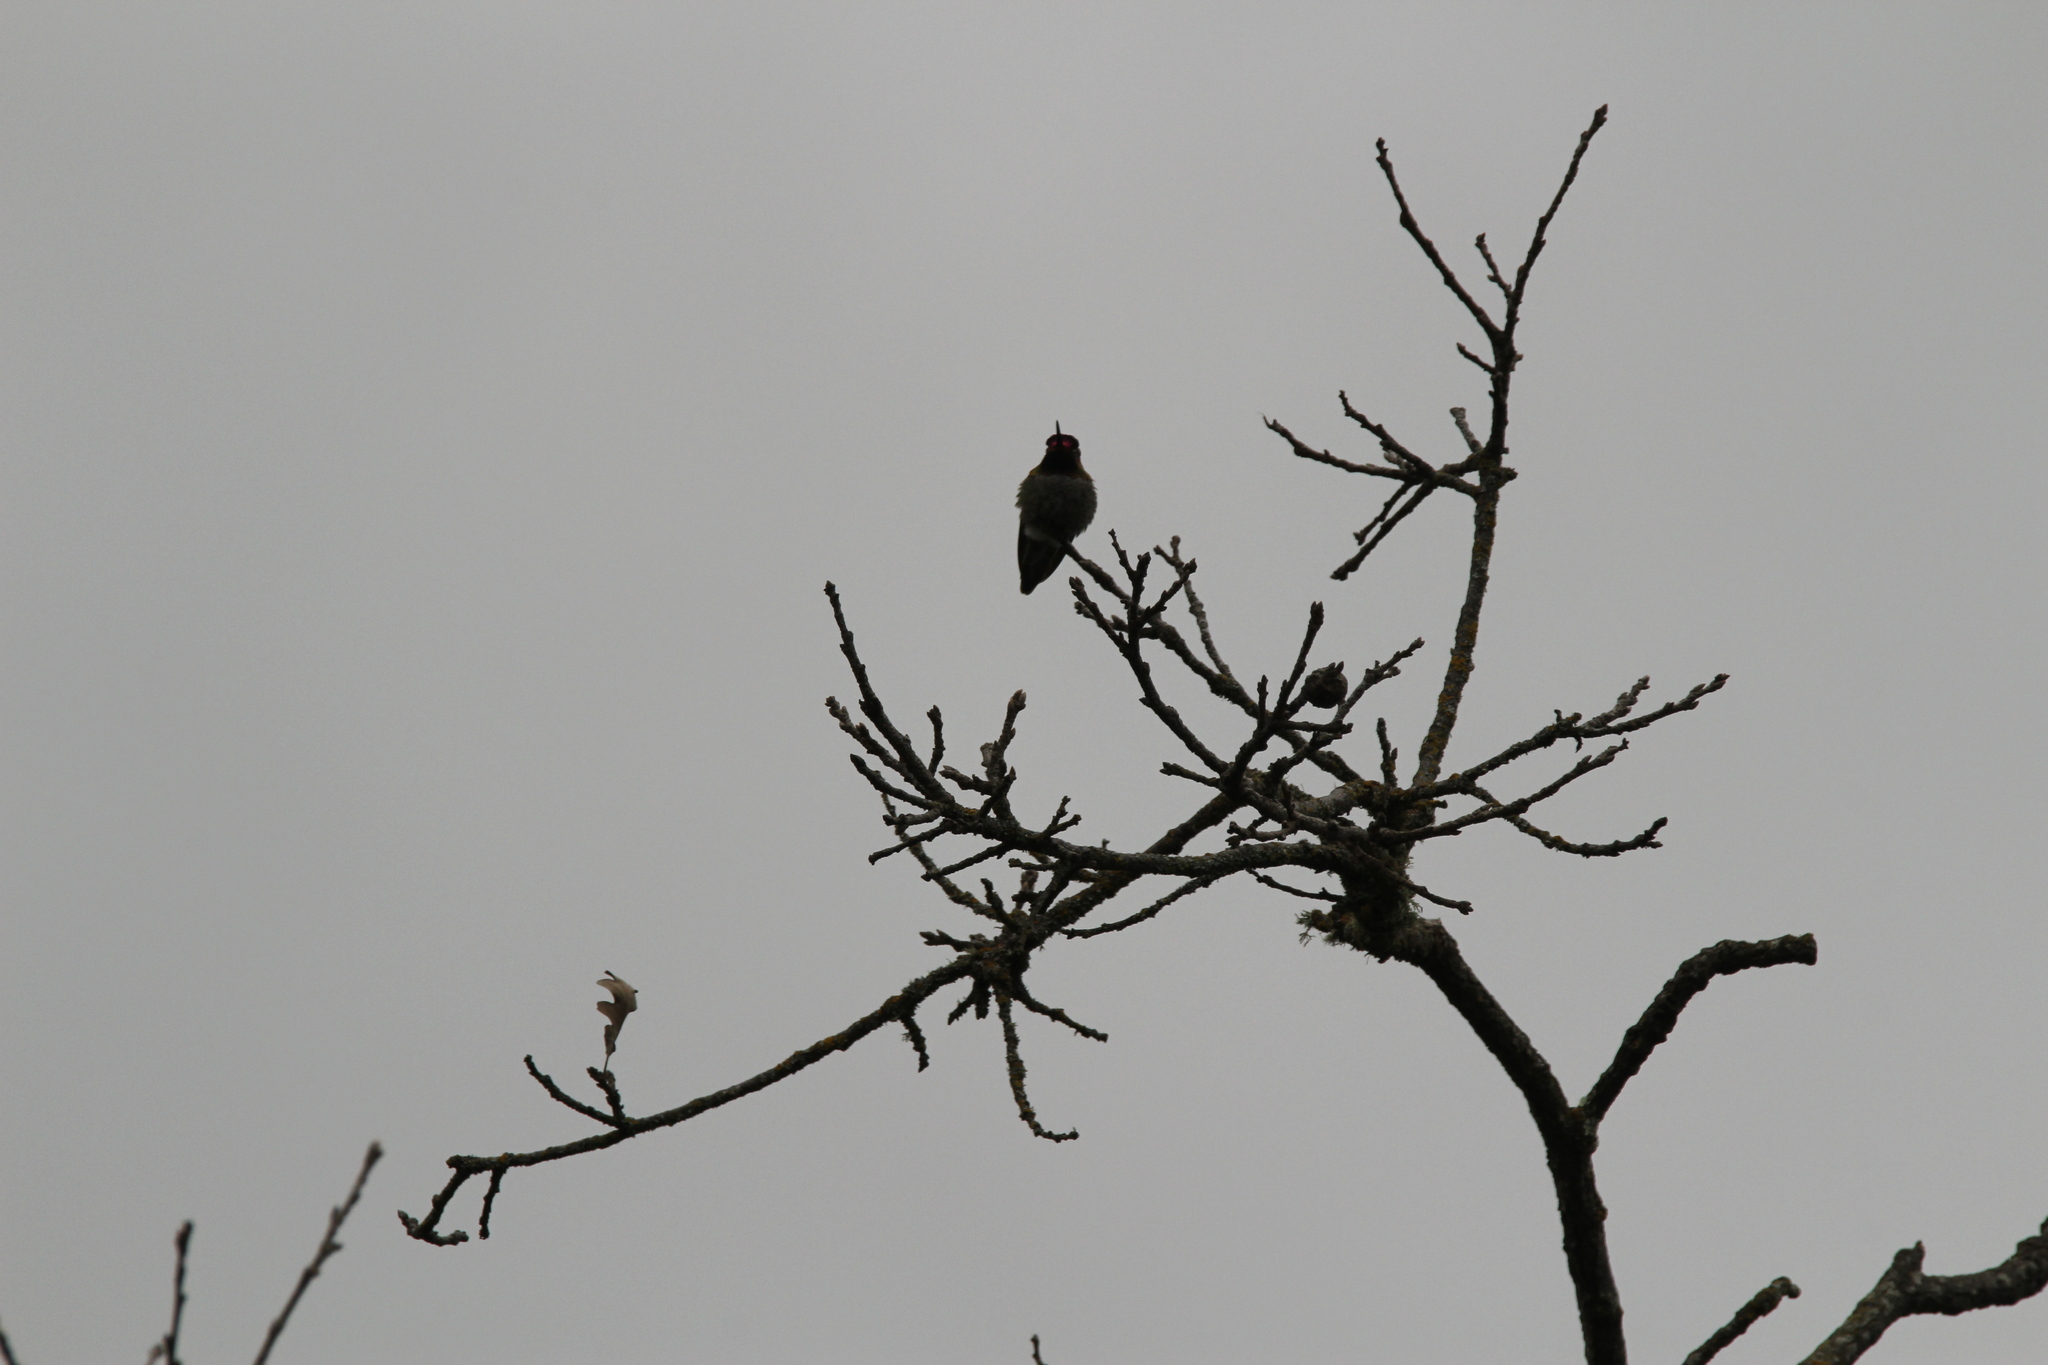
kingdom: Animalia
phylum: Chordata
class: Aves
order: Apodiformes
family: Trochilidae
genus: Calypte
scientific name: Calypte anna
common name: Anna's hummingbird
